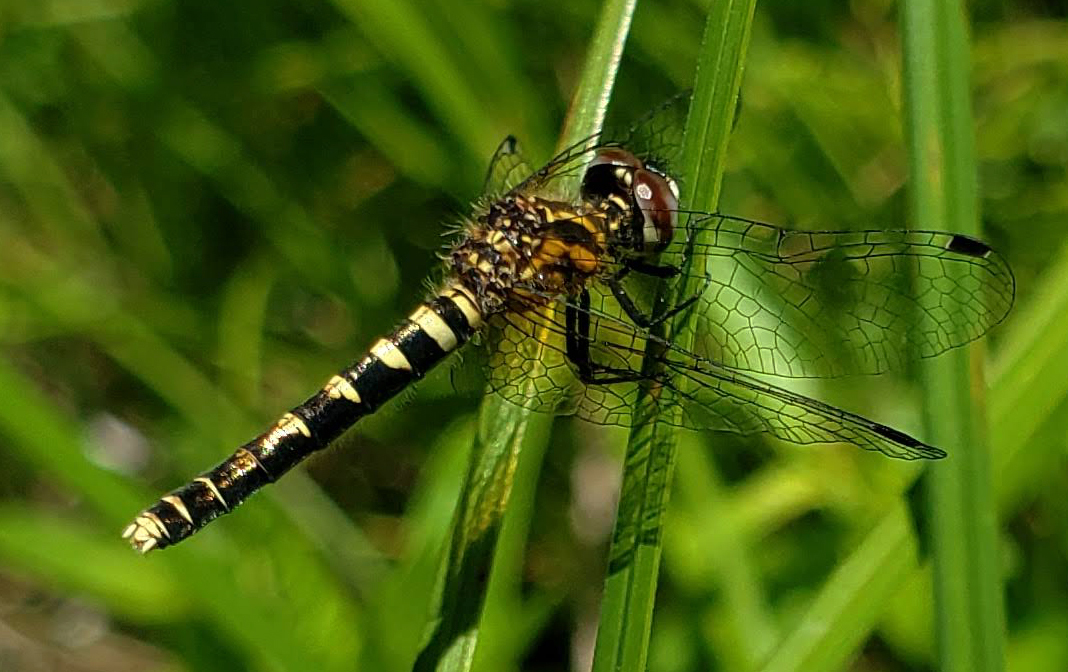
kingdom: Animalia
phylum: Arthropoda
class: Insecta
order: Odonata
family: Libellulidae
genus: Nannothemis
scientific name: Nannothemis bella
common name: Elfin skimmer
